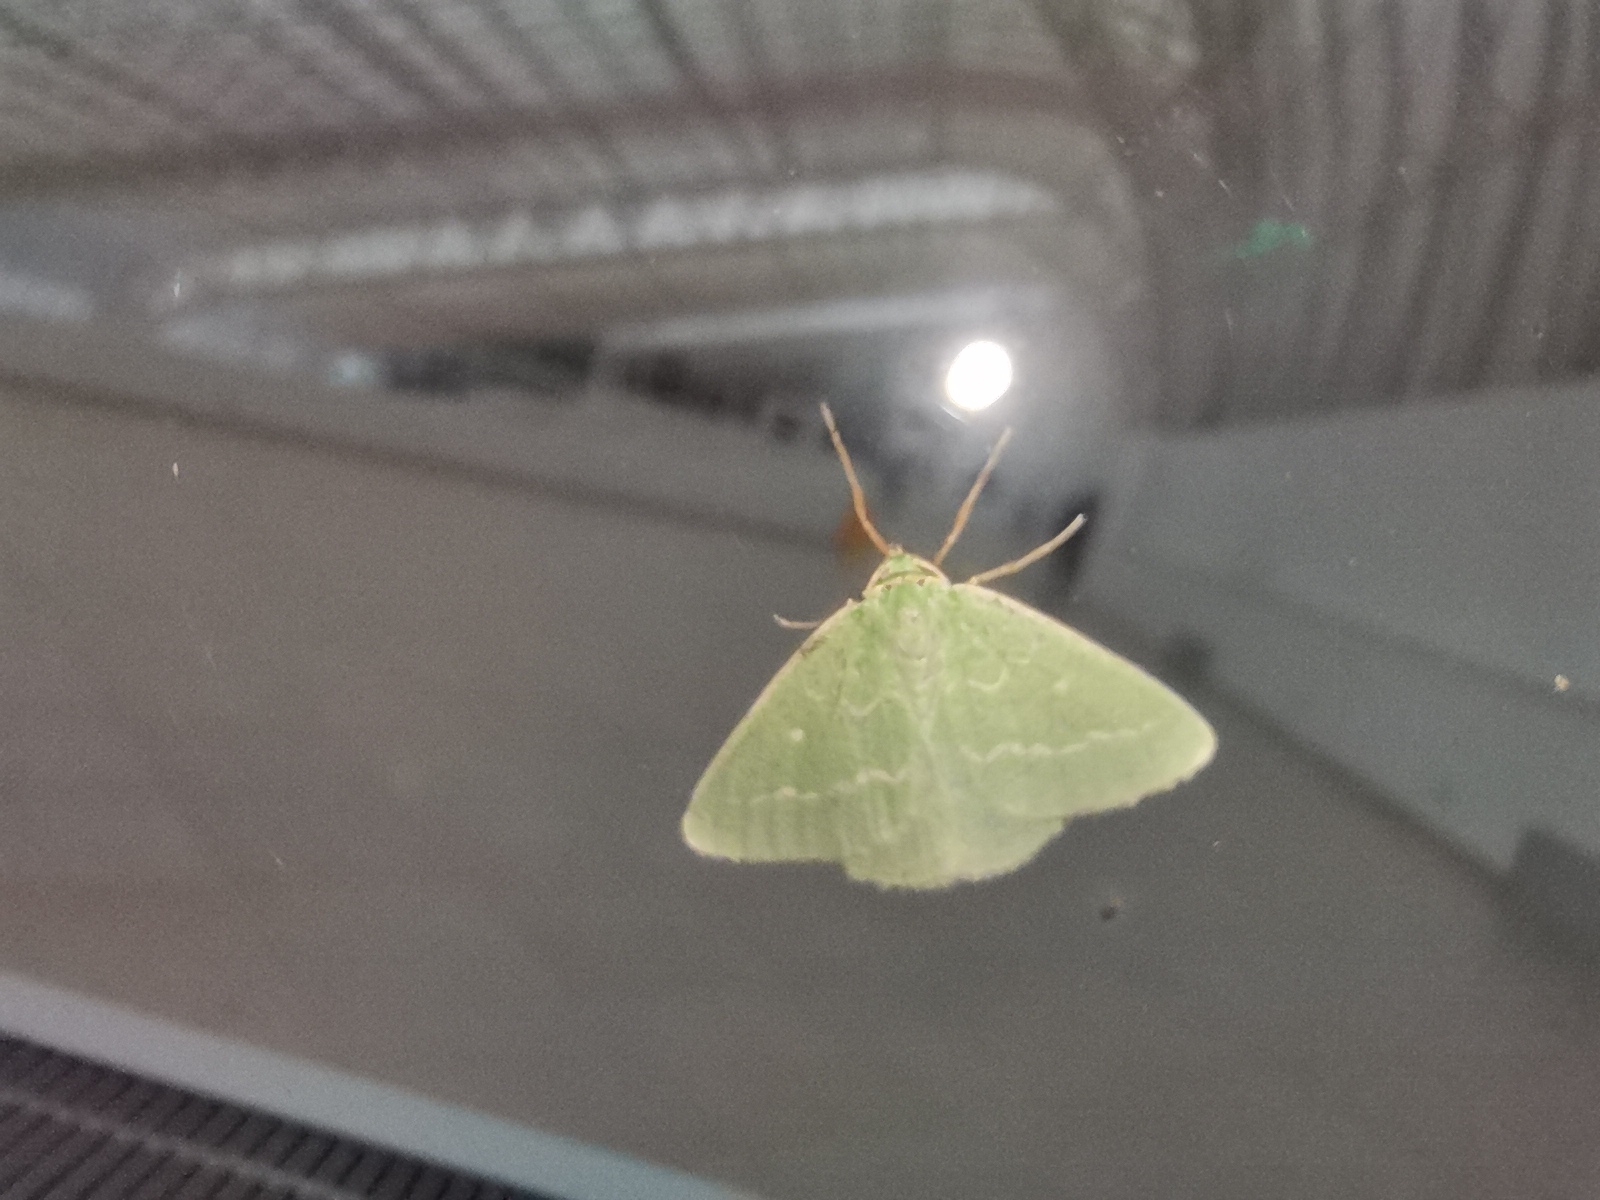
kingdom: Animalia
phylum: Arthropoda
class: Insecta
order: Lepidoptera
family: Geometridae
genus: Thetidia
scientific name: Thetidia smaragdaria
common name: Essex emerald
